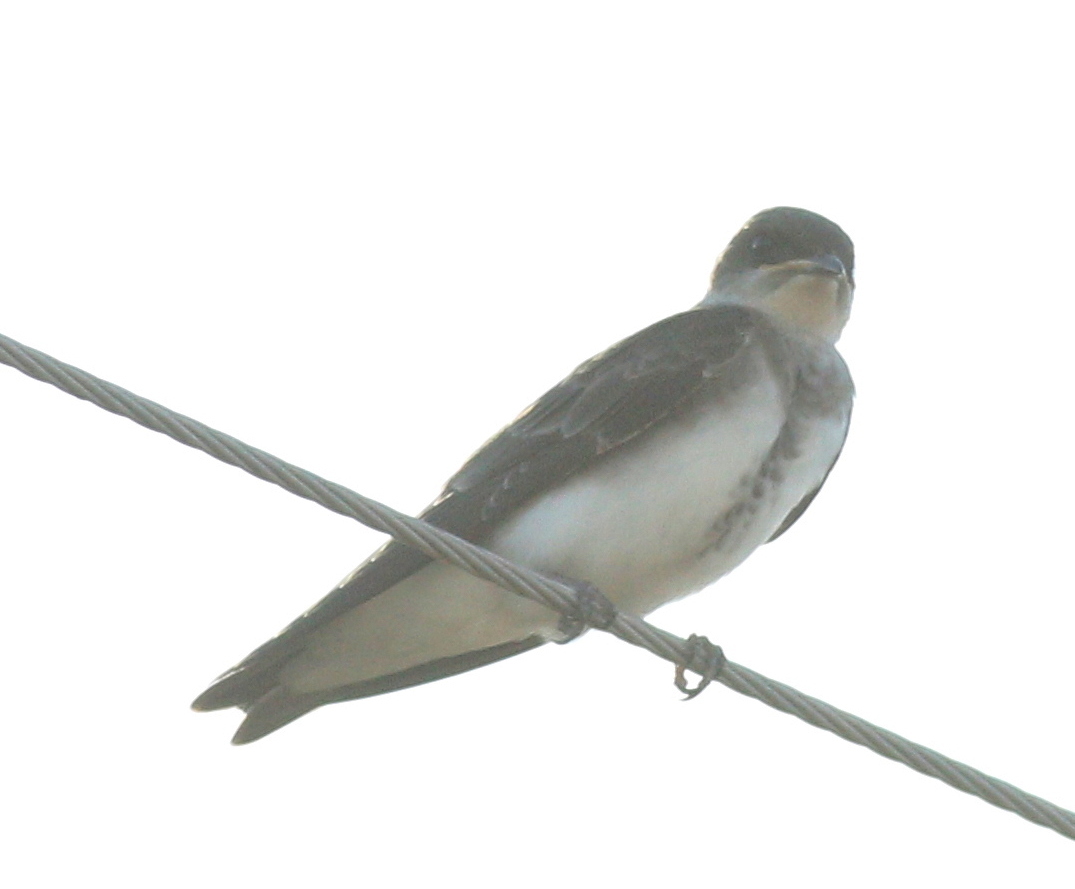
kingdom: Animalia
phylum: Chordata
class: Aves
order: Passeriformes
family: Hirundinidae
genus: Progne
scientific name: Progne tapera
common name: Brown-chested martin
